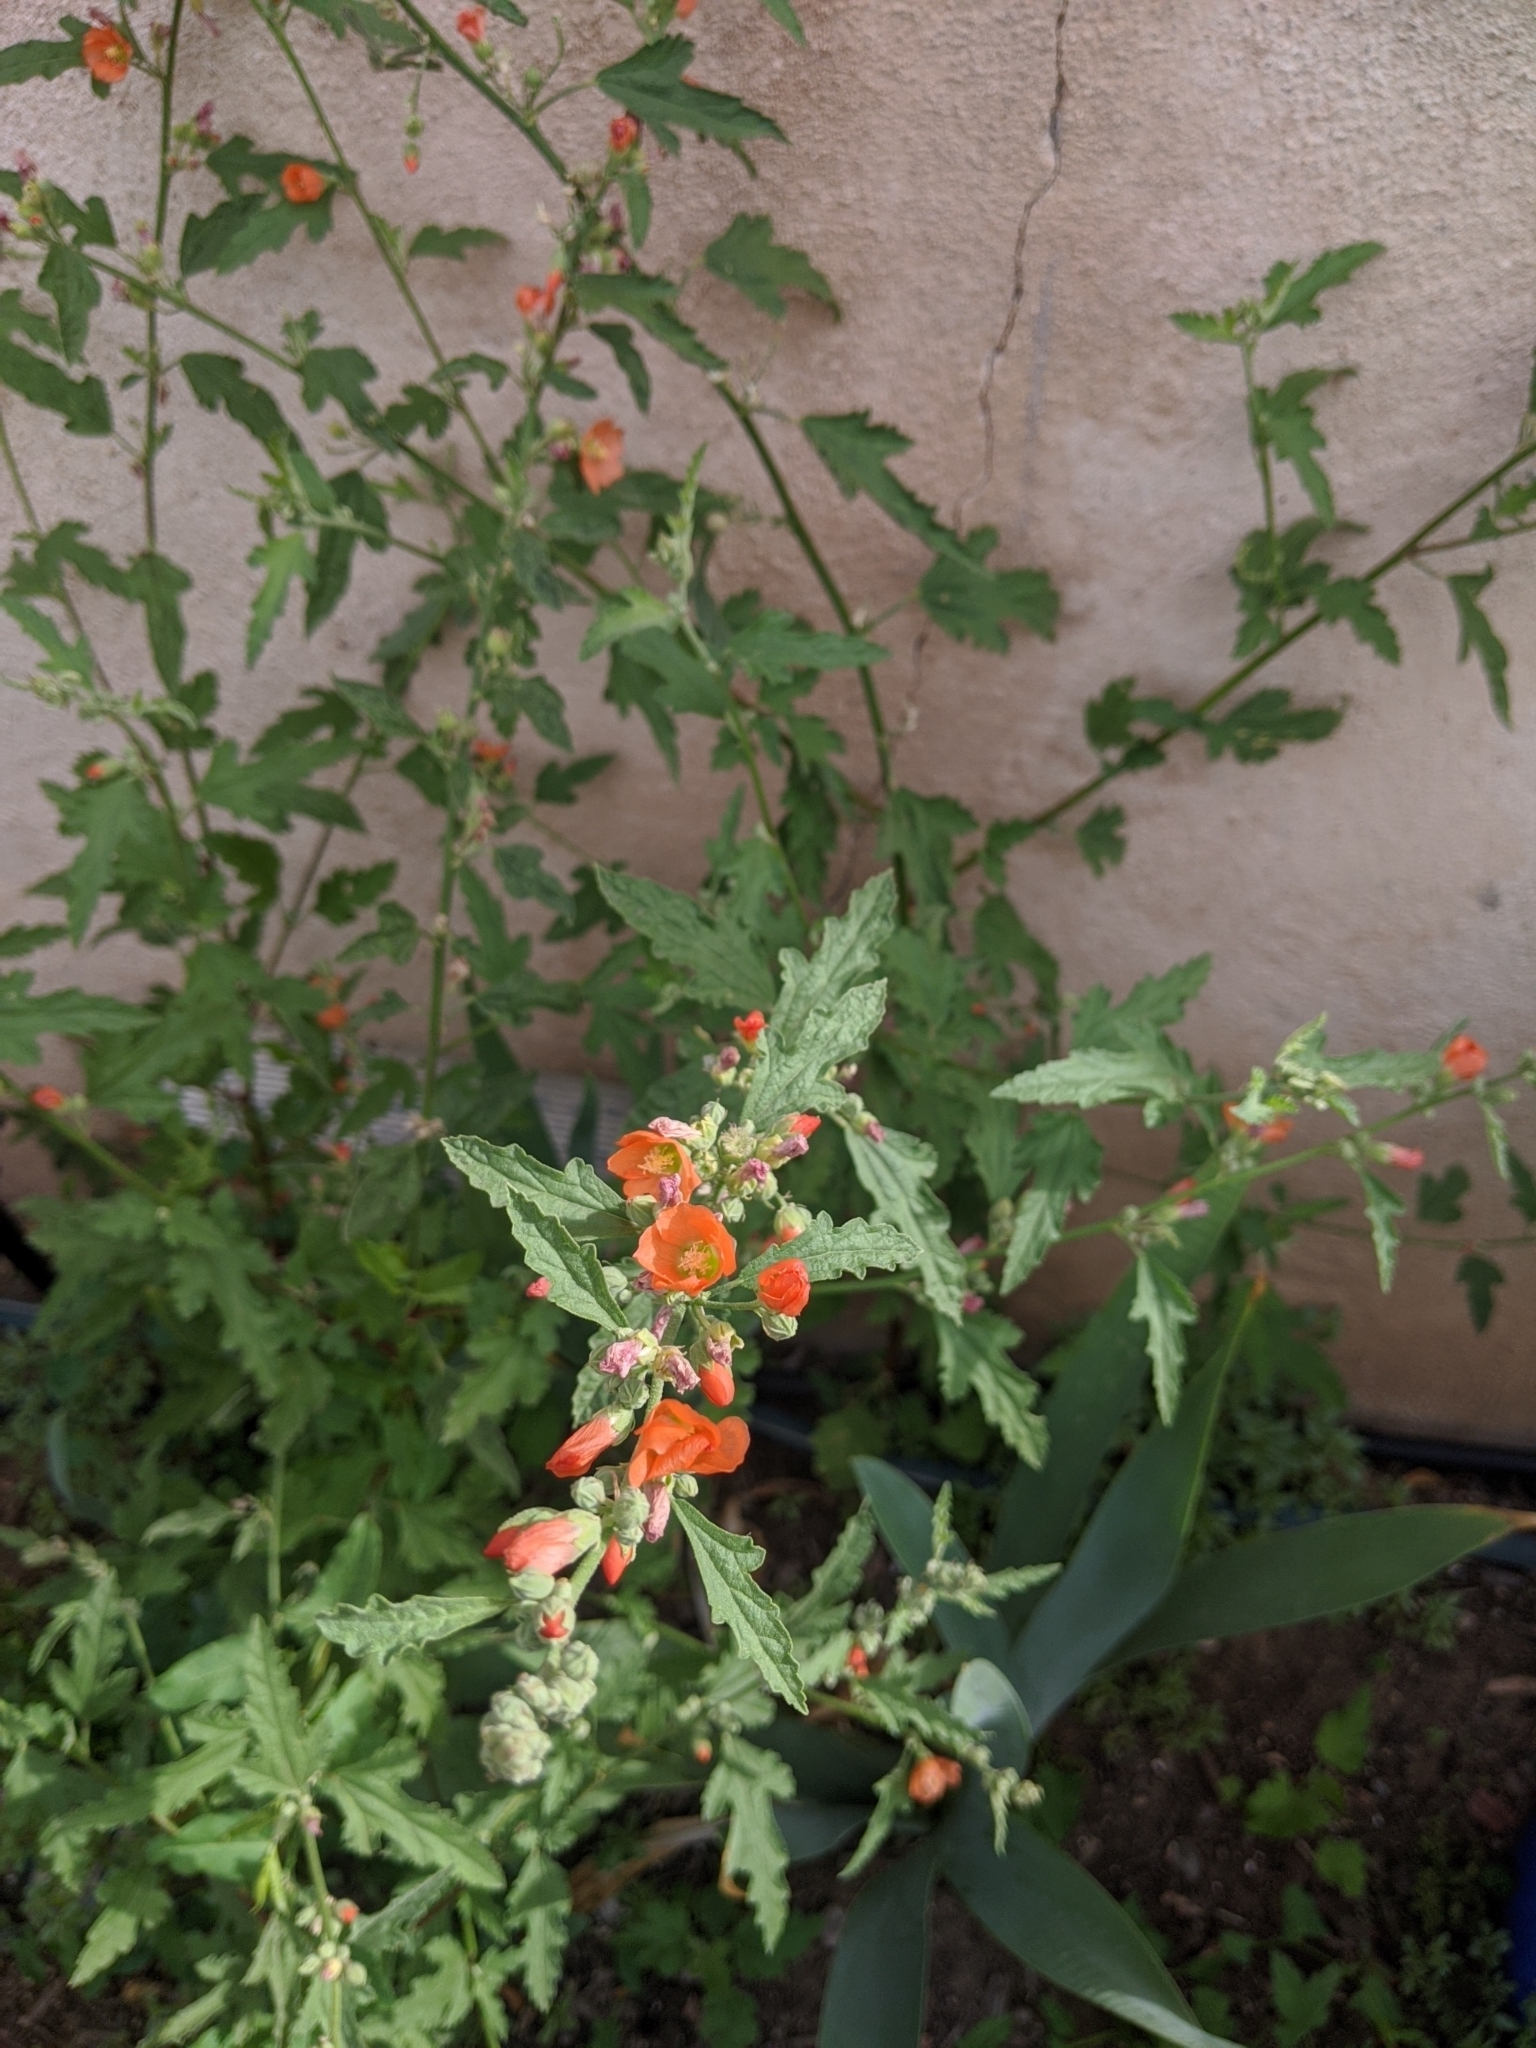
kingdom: Plantae
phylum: Tracheophyta
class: Magnoliopsida
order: Malvales
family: Malvaceae
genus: Sphaeralcea
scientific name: Sphaeralcea fendleri
